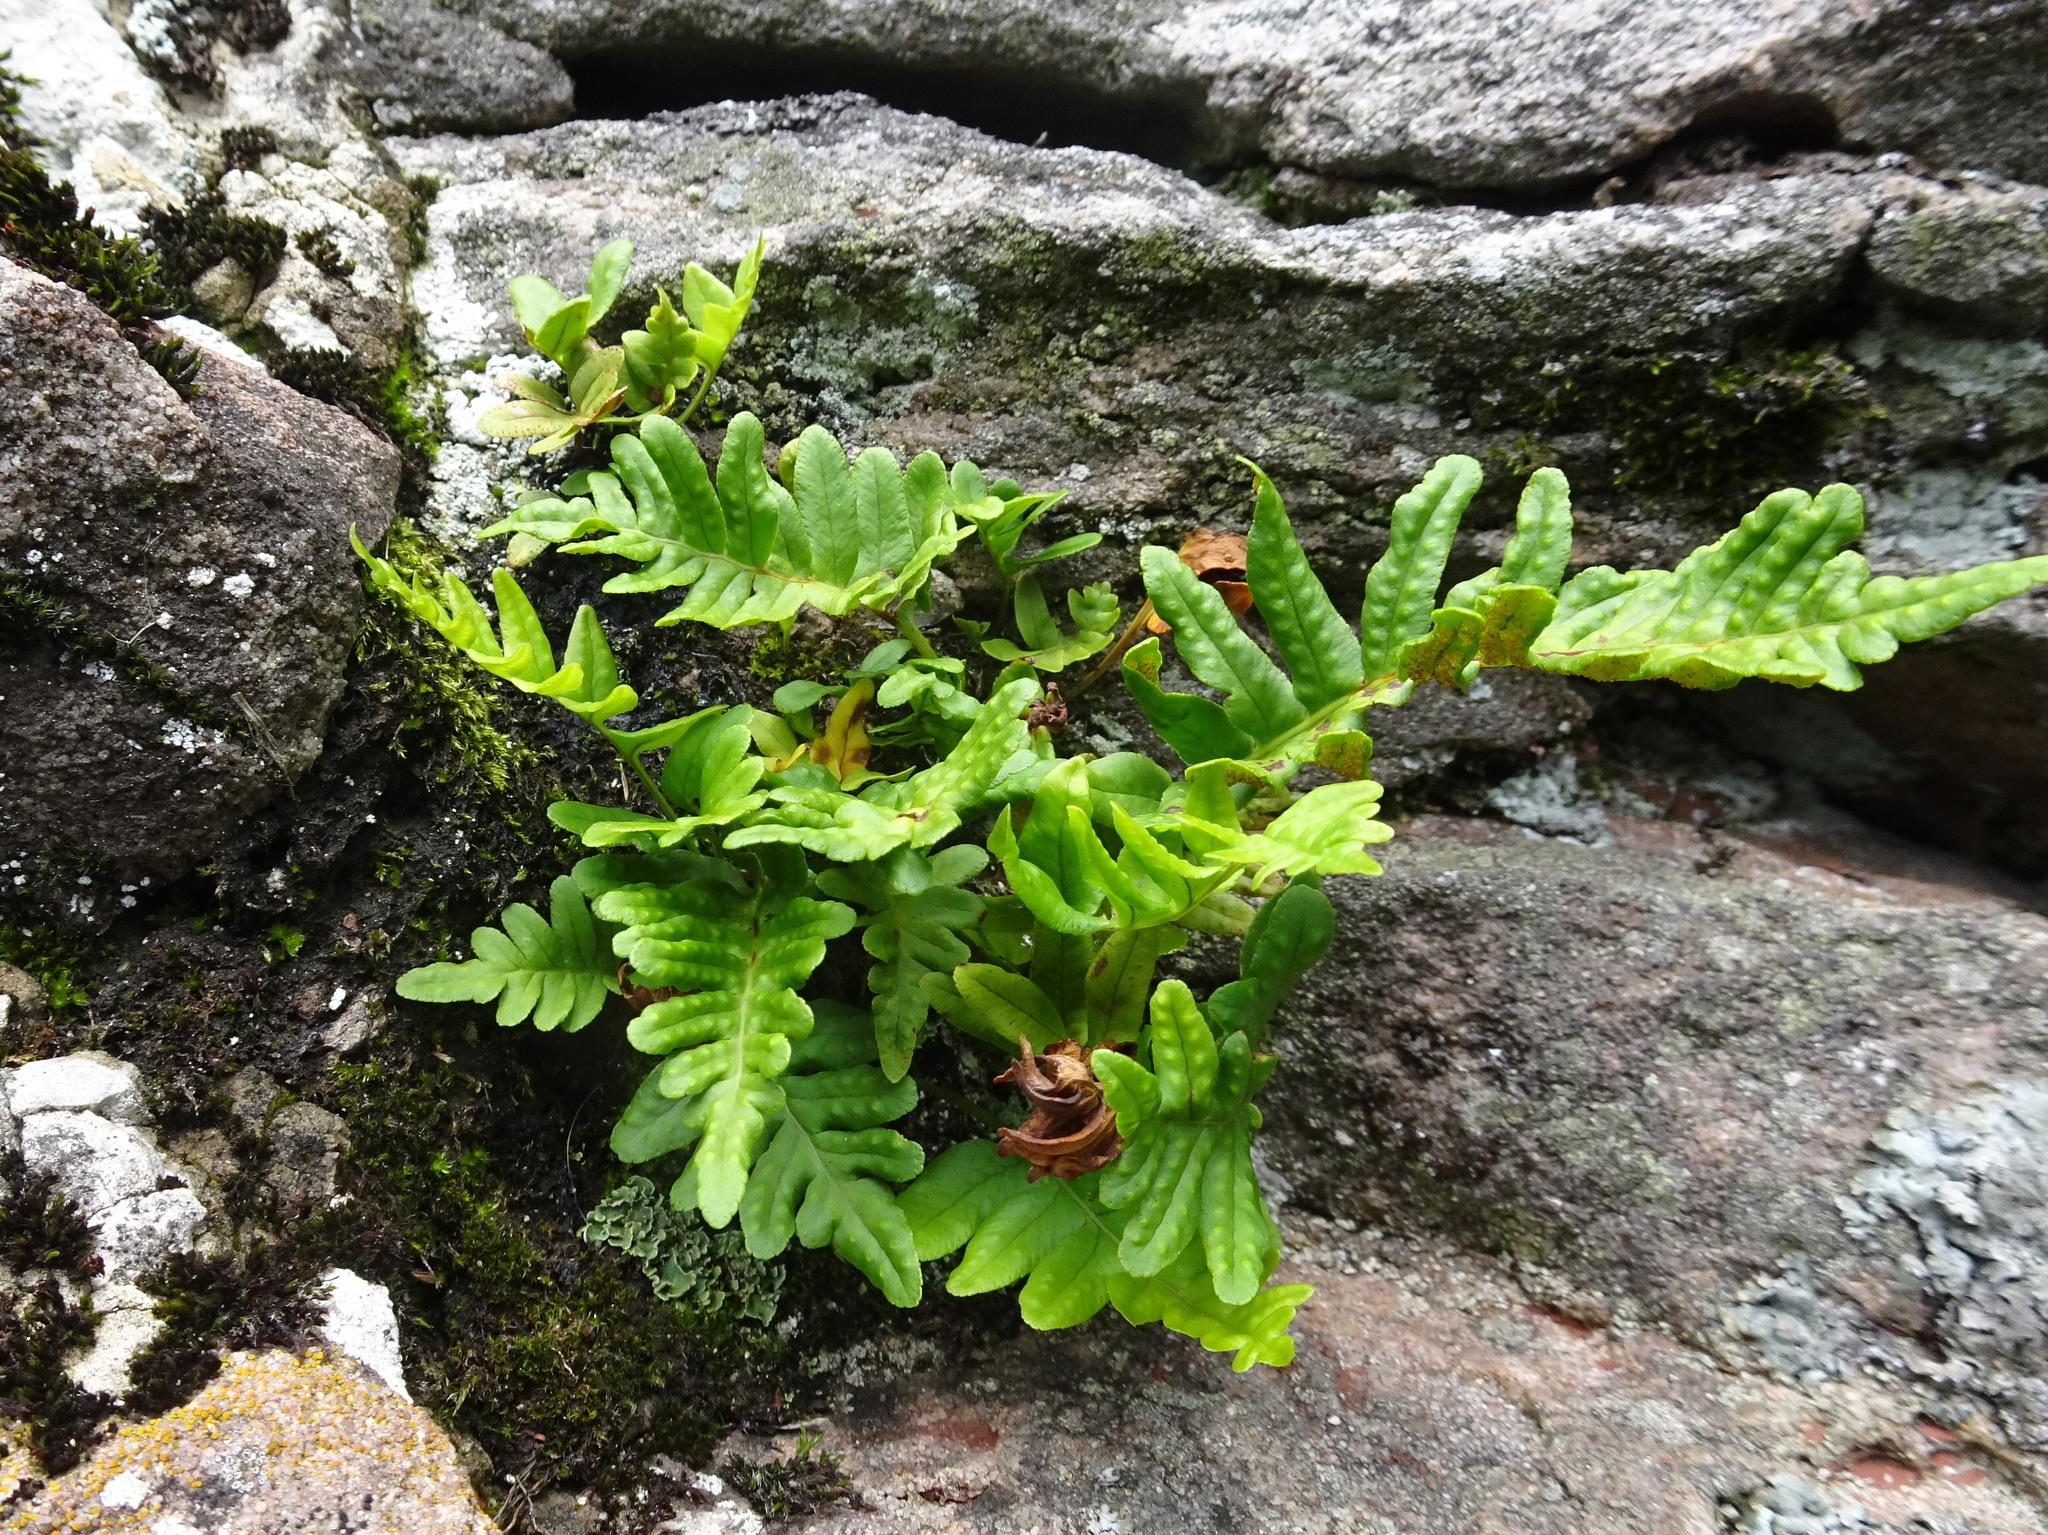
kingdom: Plantae
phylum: Tracheophyta
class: Polypodiopsida
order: Polypodiales
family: Polypodiaceae
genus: Polypodium
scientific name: Polypodium vulgare
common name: Common polypody
